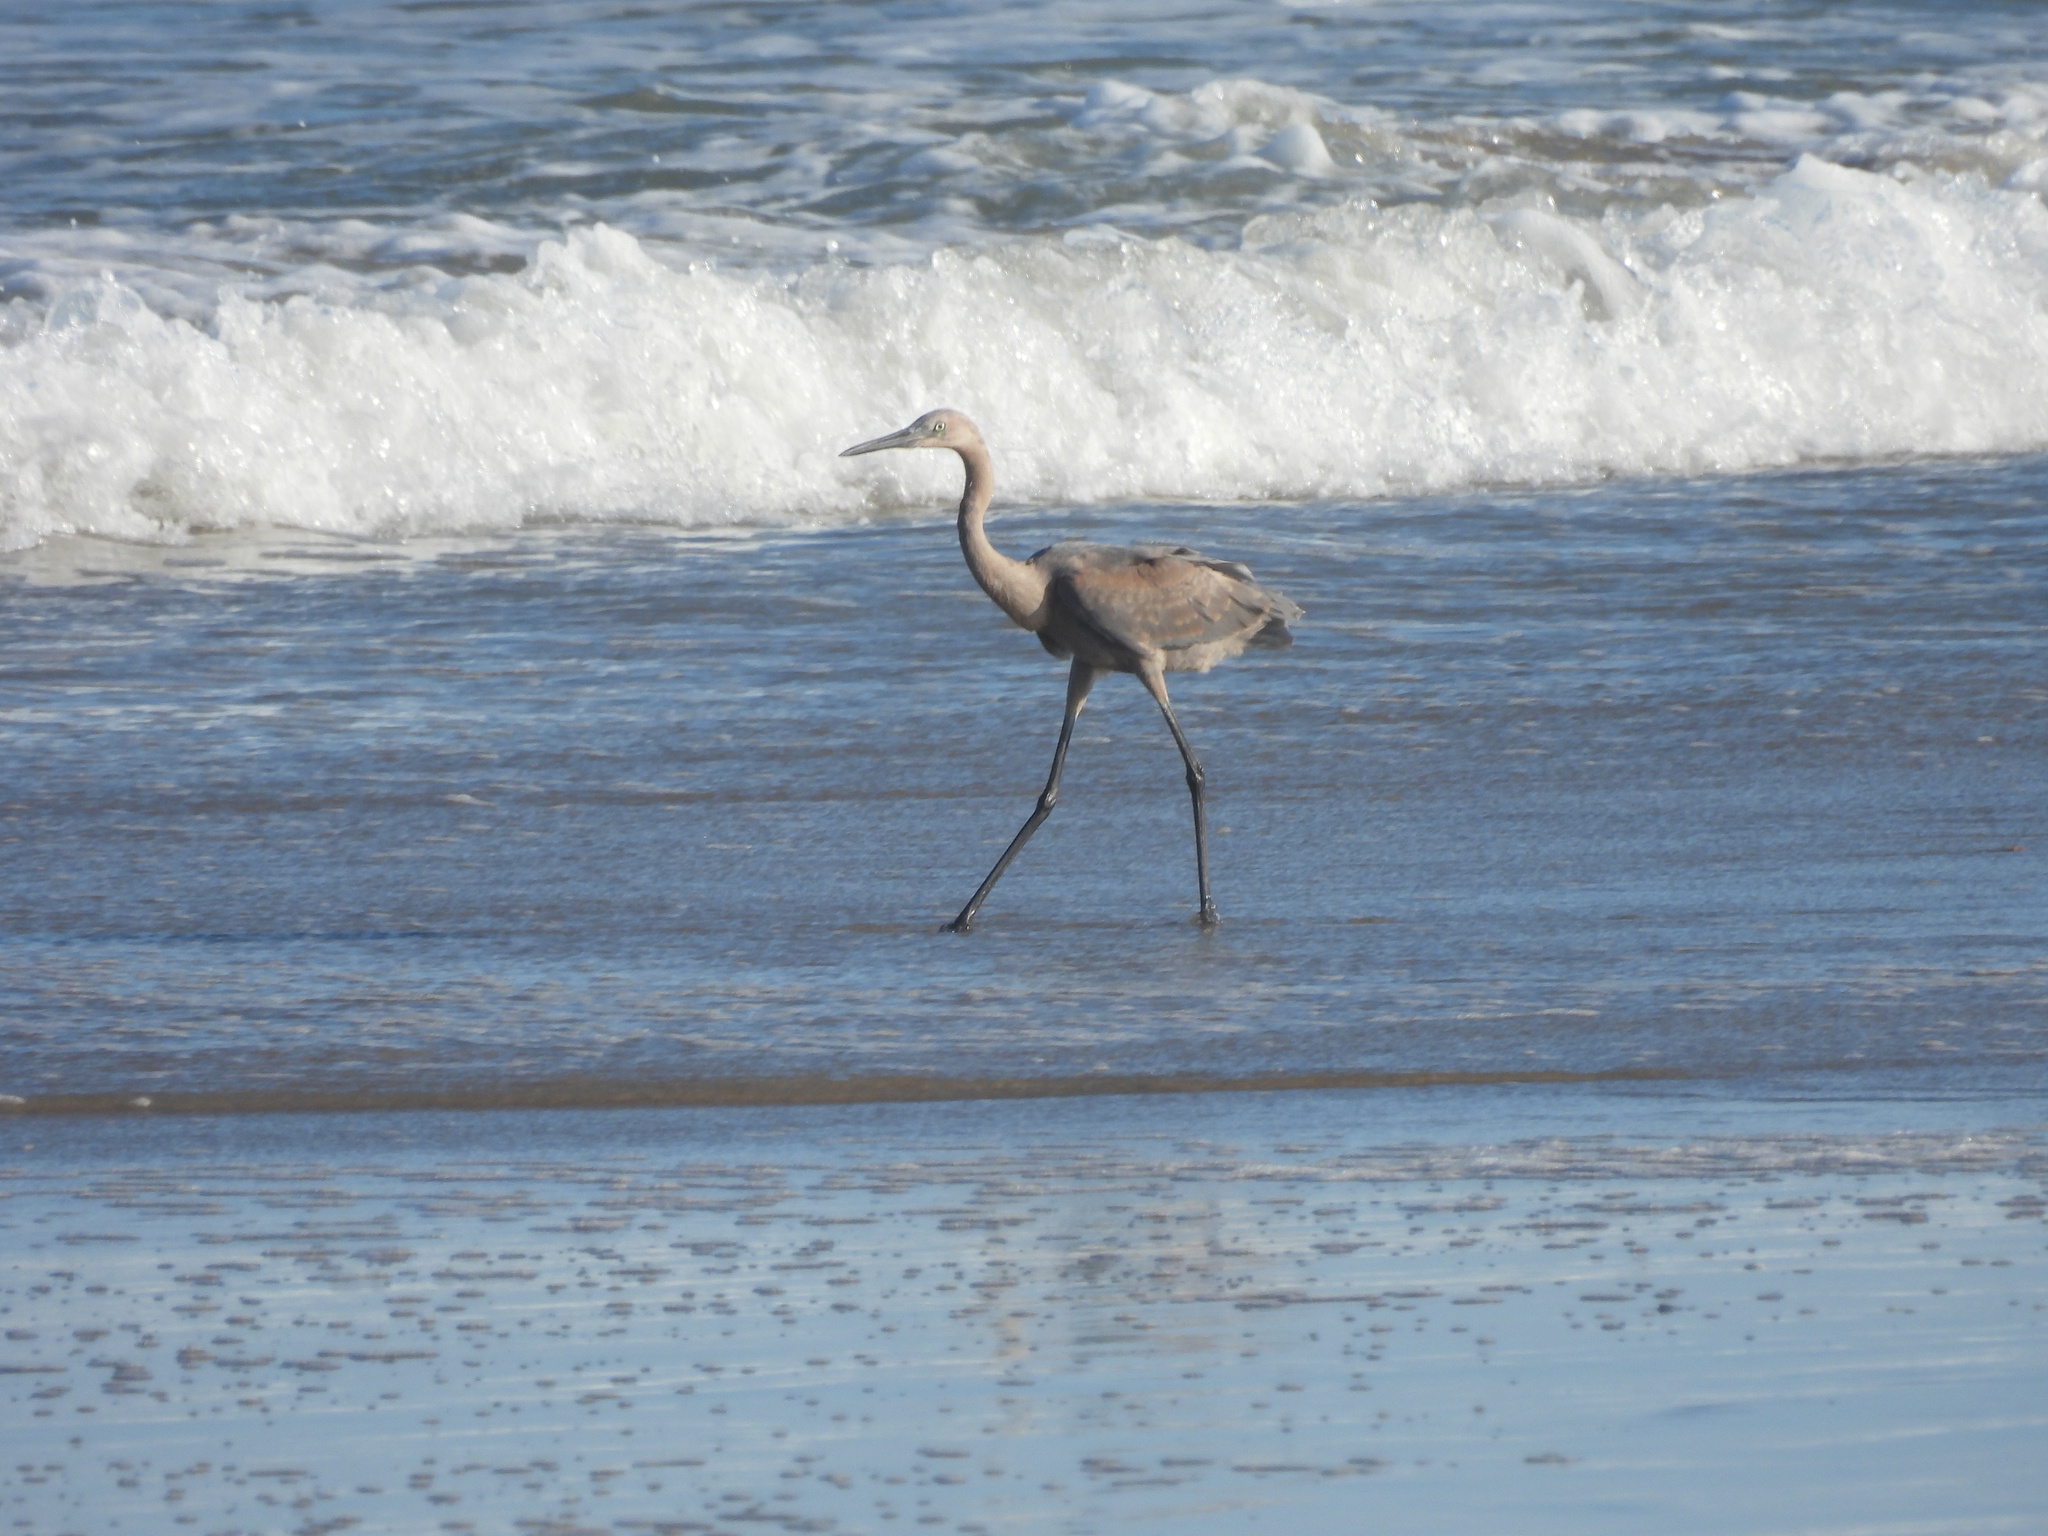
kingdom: Animalia
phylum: Chordata
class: Aves
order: Pelecaniformes
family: Ardeidae
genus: Egretta
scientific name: Egretta rufescens
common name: Reddish egret
